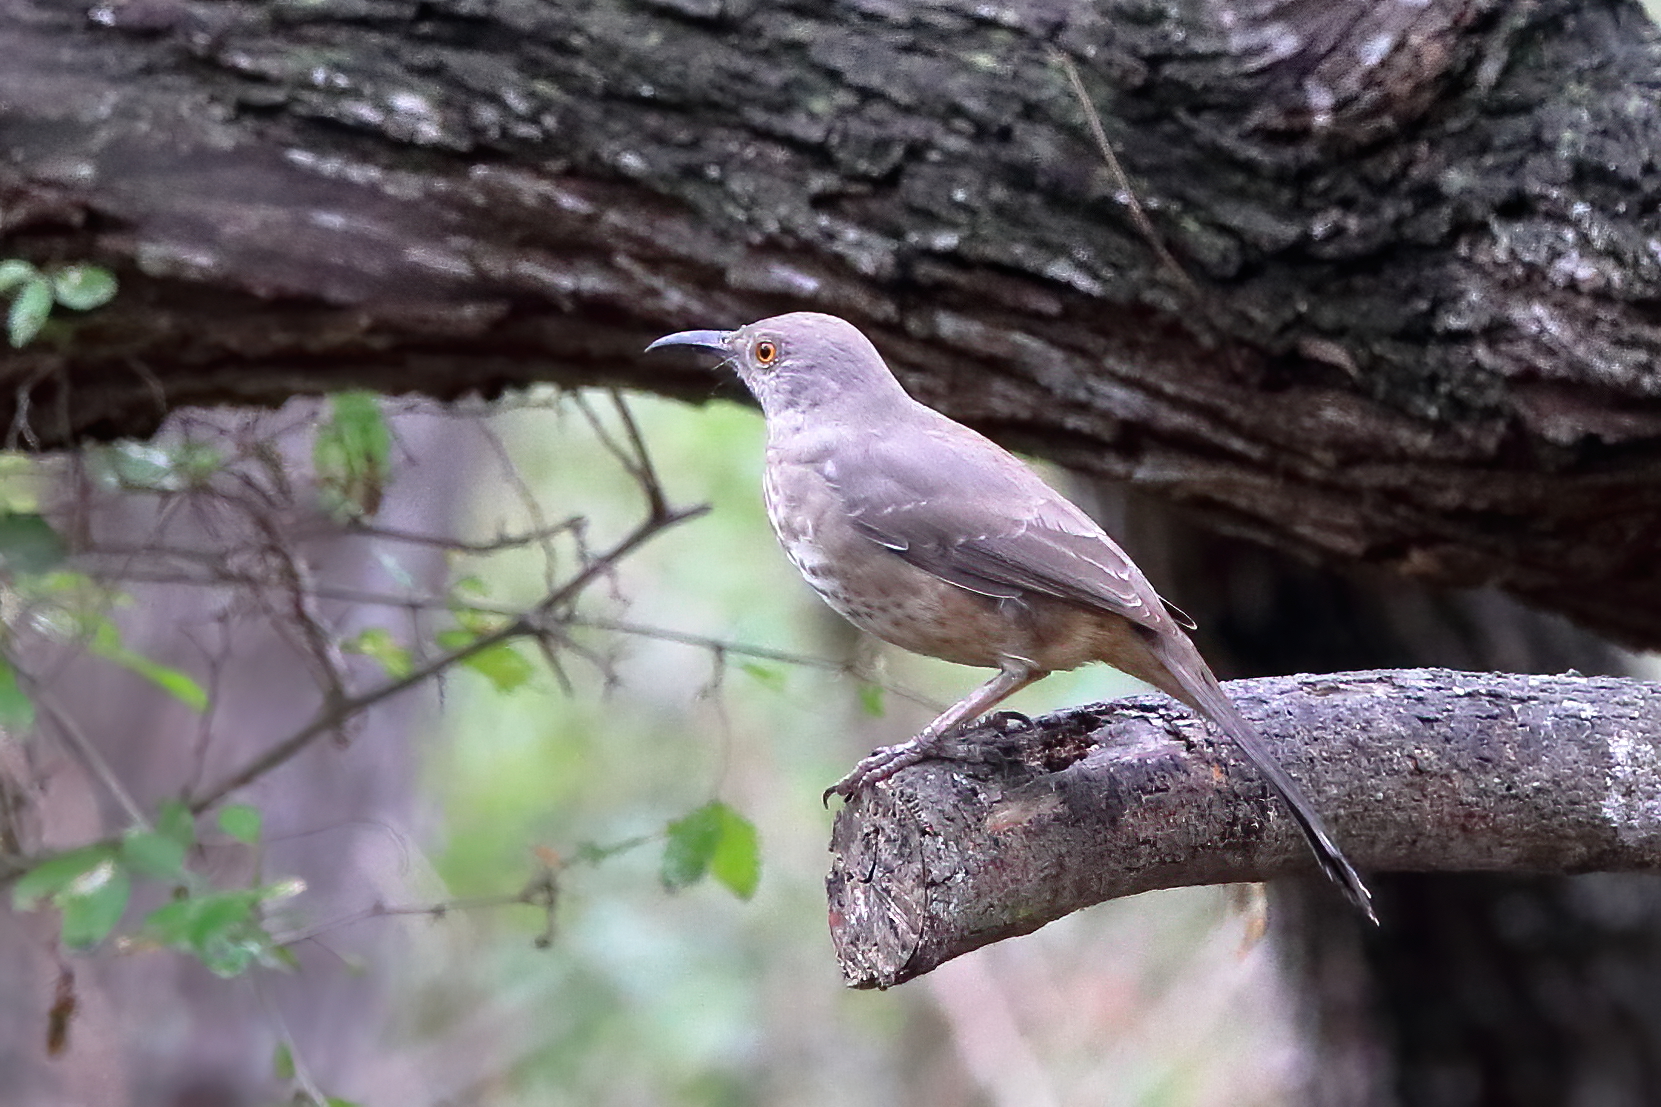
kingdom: Animalia
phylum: Chordata
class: Aves
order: Passeriformes
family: Mimidae
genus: Toxostoma
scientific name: Toxostoma curvirostre
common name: Curve-billed thrasher
